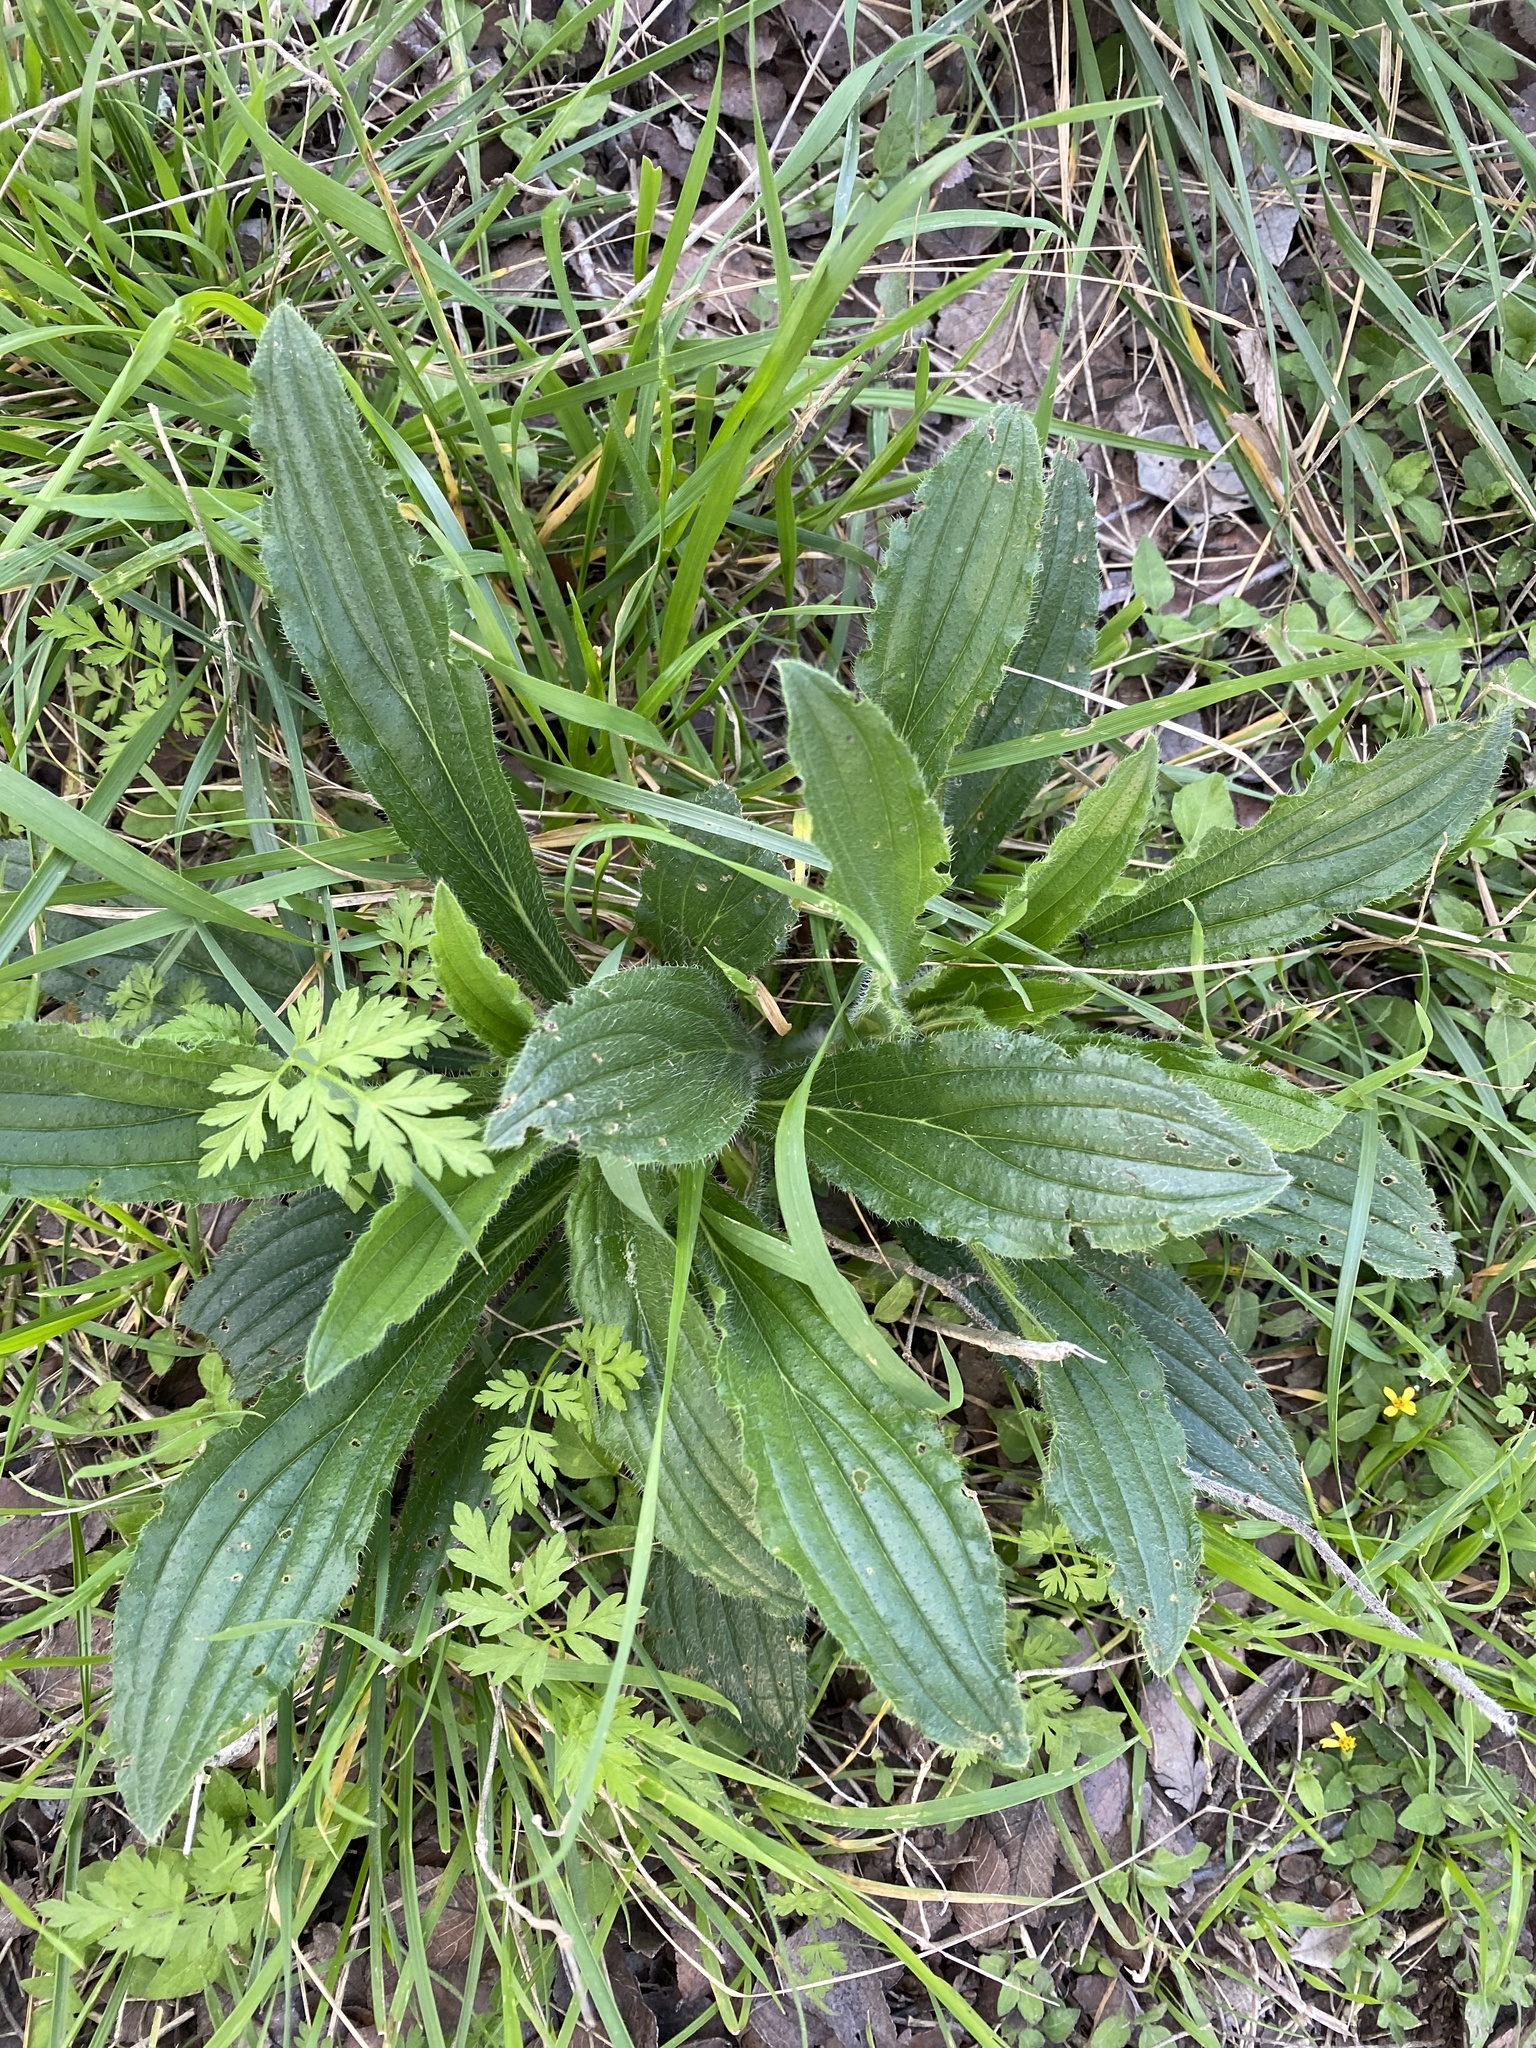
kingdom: Plantae
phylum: Tracheophyta
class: Magnoliopsida
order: Boraginales
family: Boraginaceae
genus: Lithospermum
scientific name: Lithospermum caroliniense
